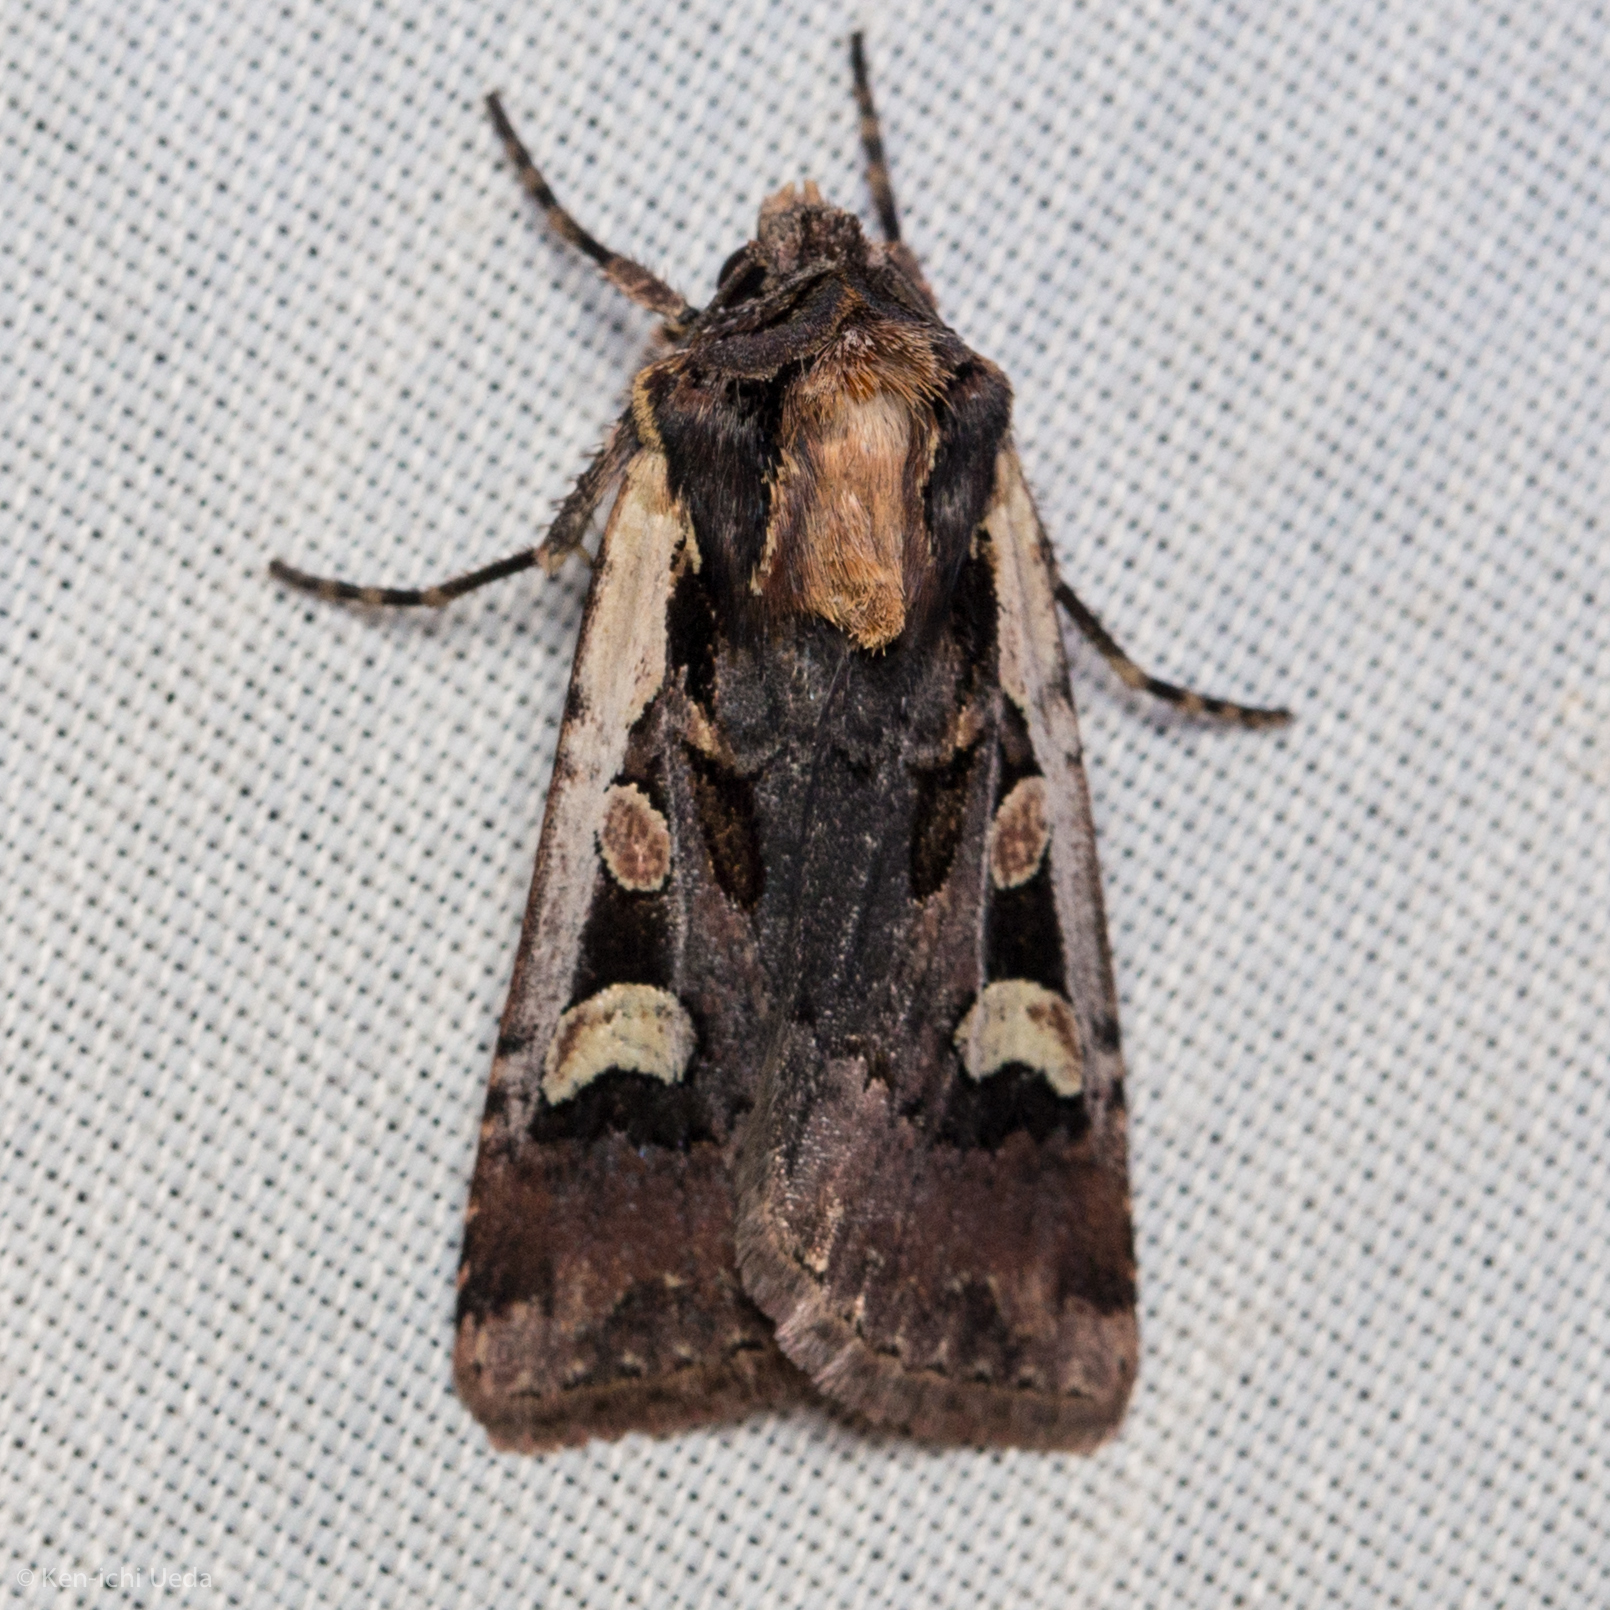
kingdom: Animalia
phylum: Arthropoda
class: Insecta
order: Lepidoptera
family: Noctuidae
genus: Euxoa
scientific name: Euxoa obeliscoides
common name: Obelisk dart moth
